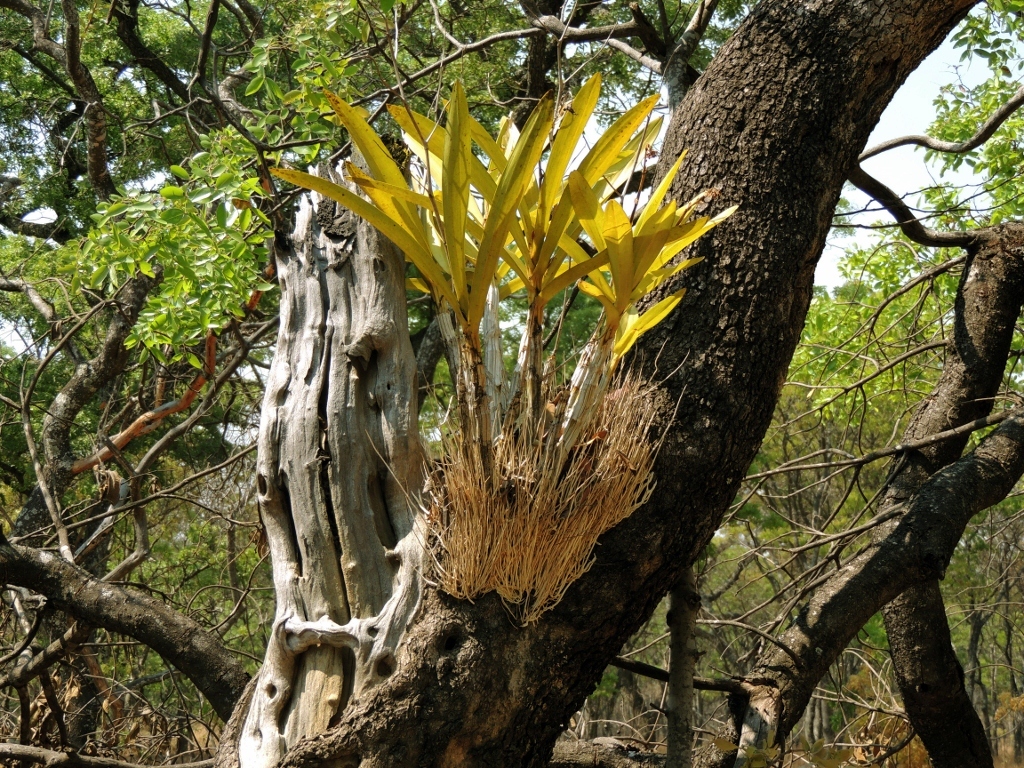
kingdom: Plantae
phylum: Tracheophyta
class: Liliopsida
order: Asparagales
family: Orchidaceae
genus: Ansellia
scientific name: Ansellia africana
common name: African ansellia
